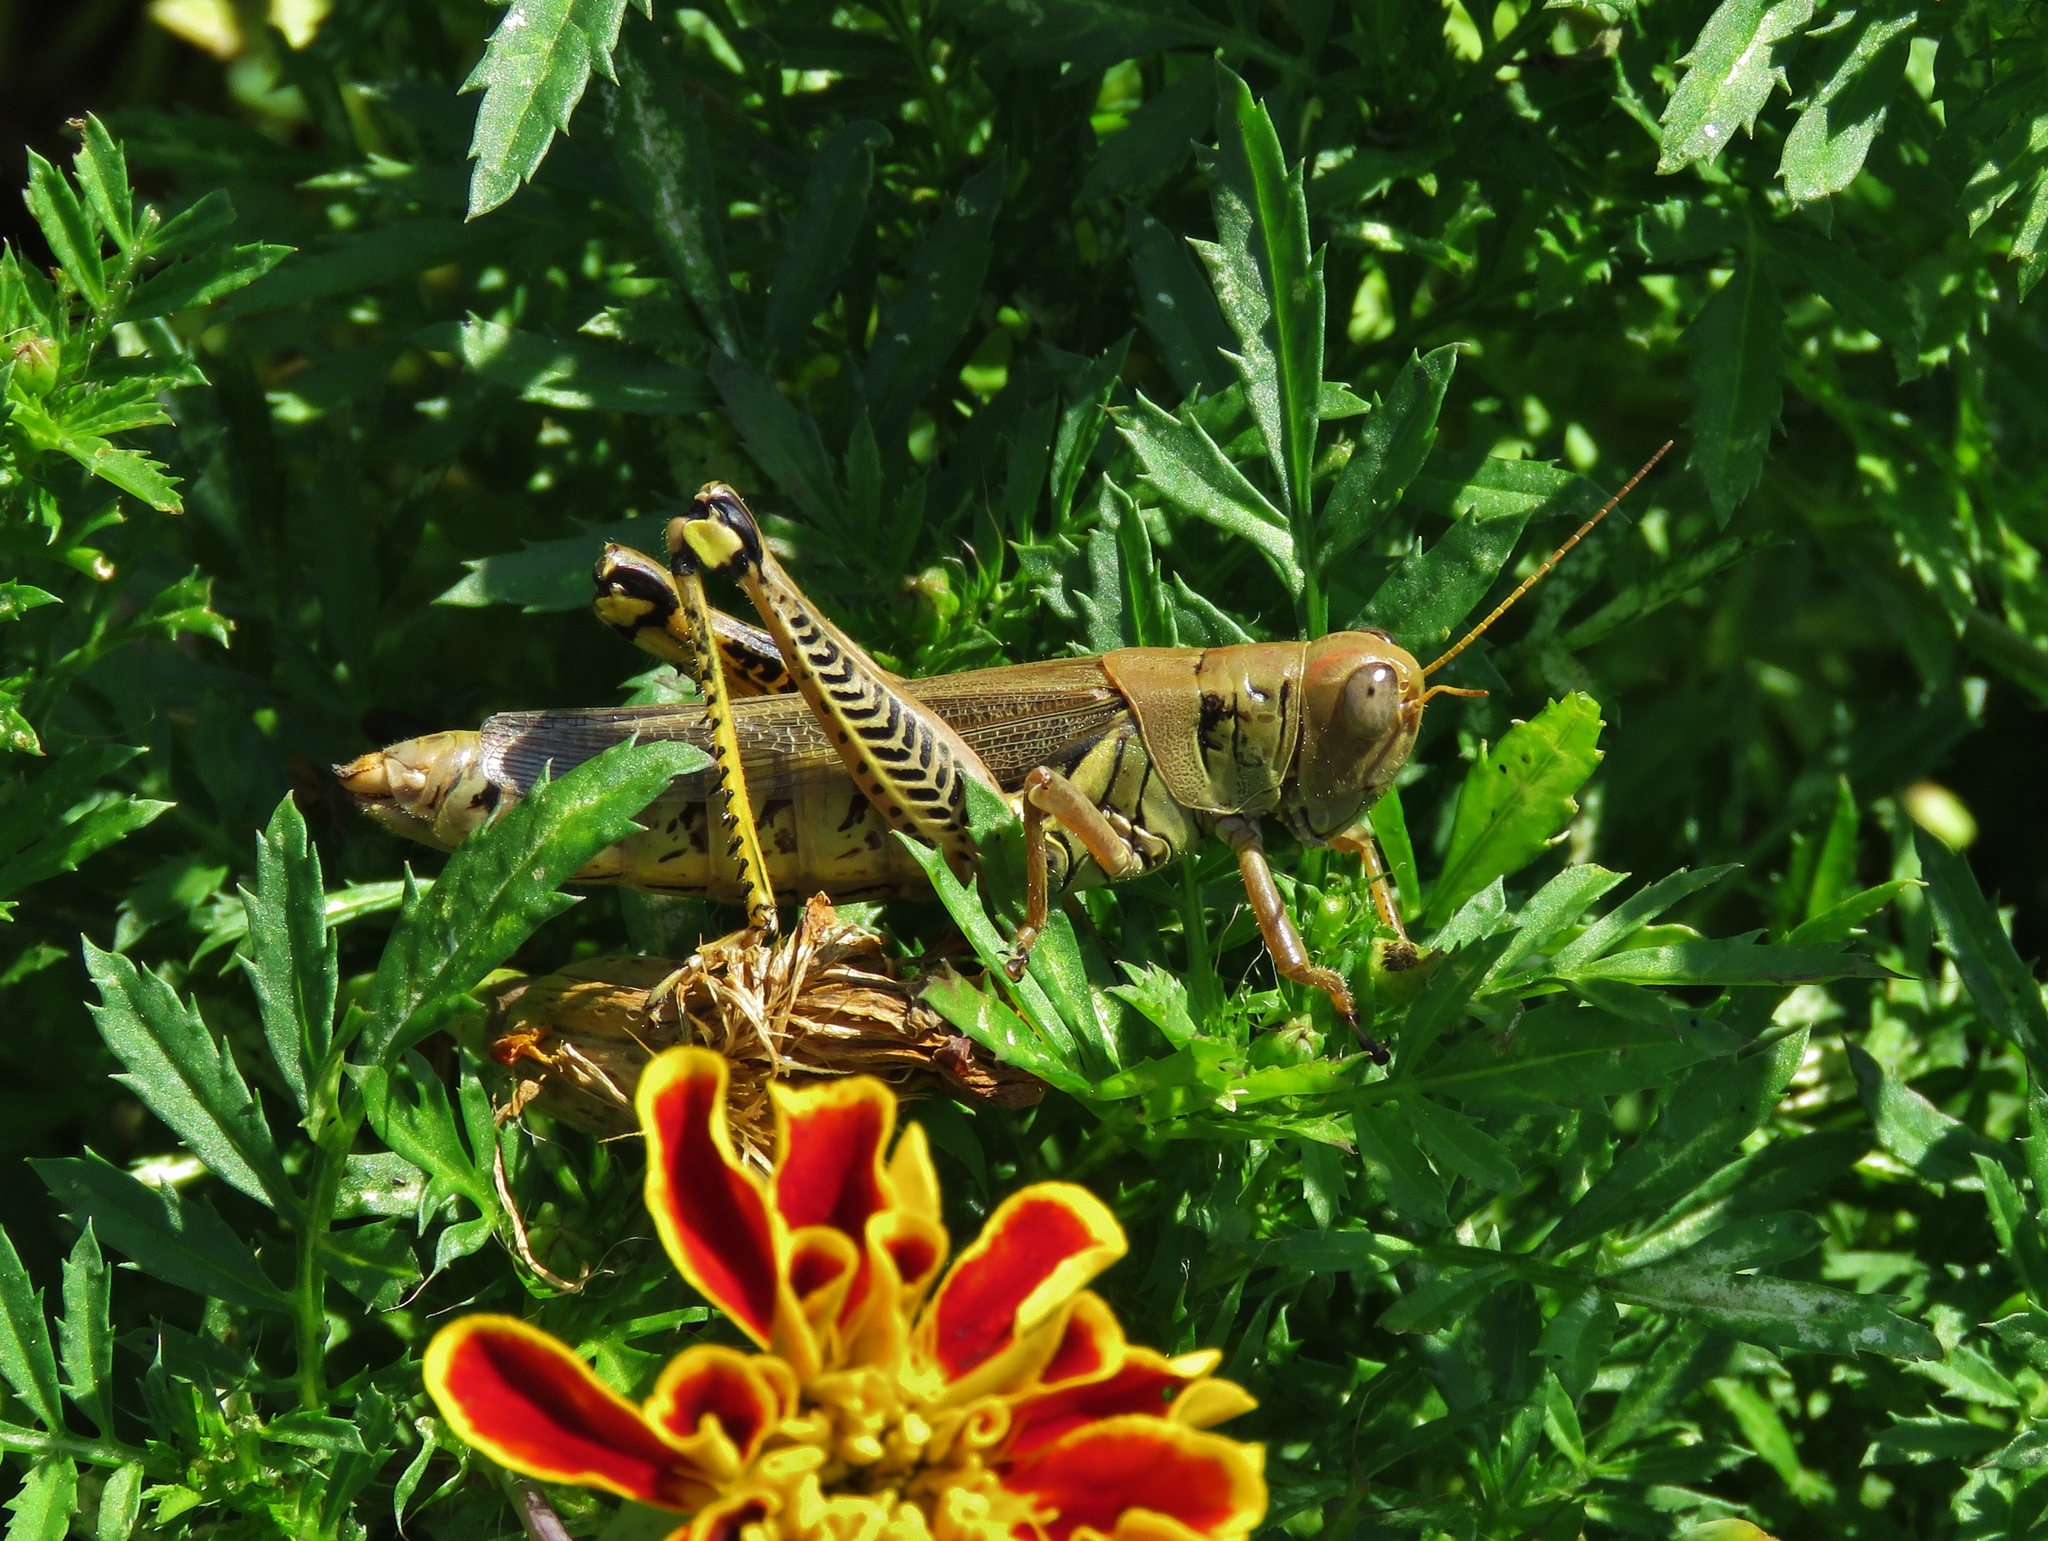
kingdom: Animalia
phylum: Arthropoda
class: Insecta
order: Orthoptera
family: Acrididae
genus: Melanoplus
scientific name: Melanoplus differentialis
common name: Differential grasshopper
